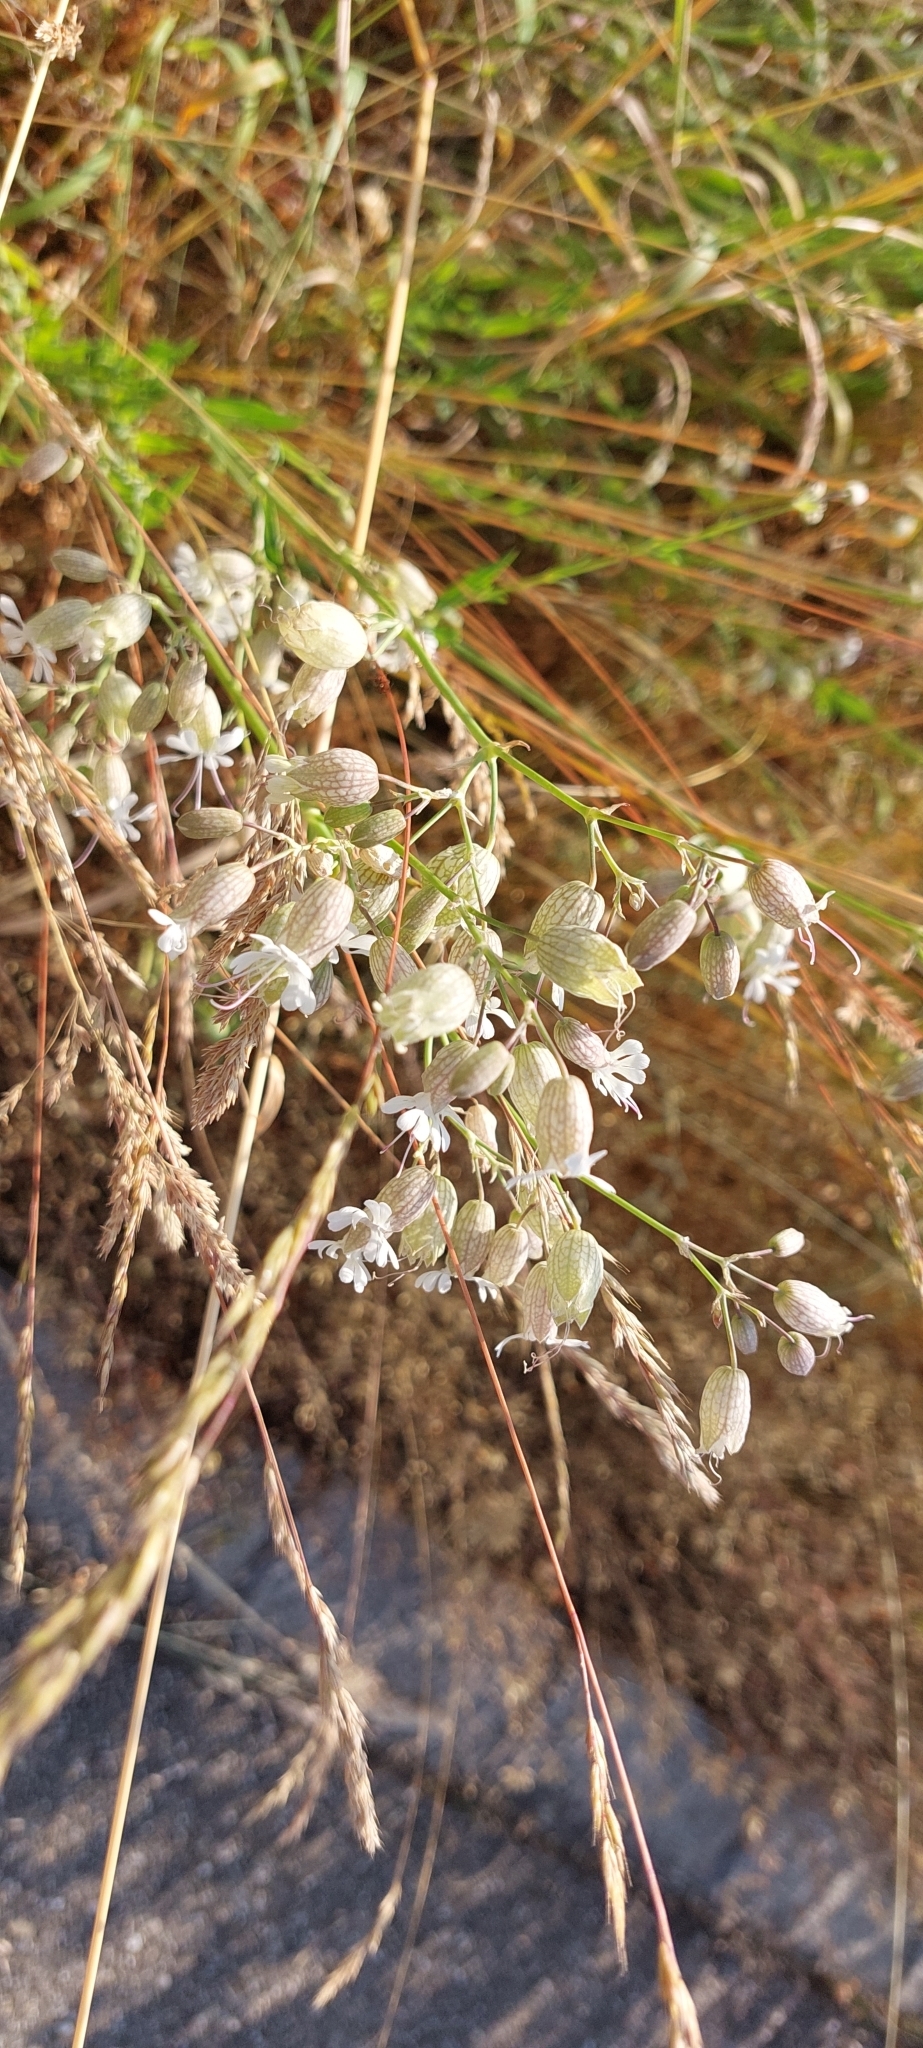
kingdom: Plantae
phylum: Tracheophyta
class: Magnoliopsida
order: Caryophyllales
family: Caryophyllaceae
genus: Silene
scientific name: Silene vulgaris
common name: Bladder campion
